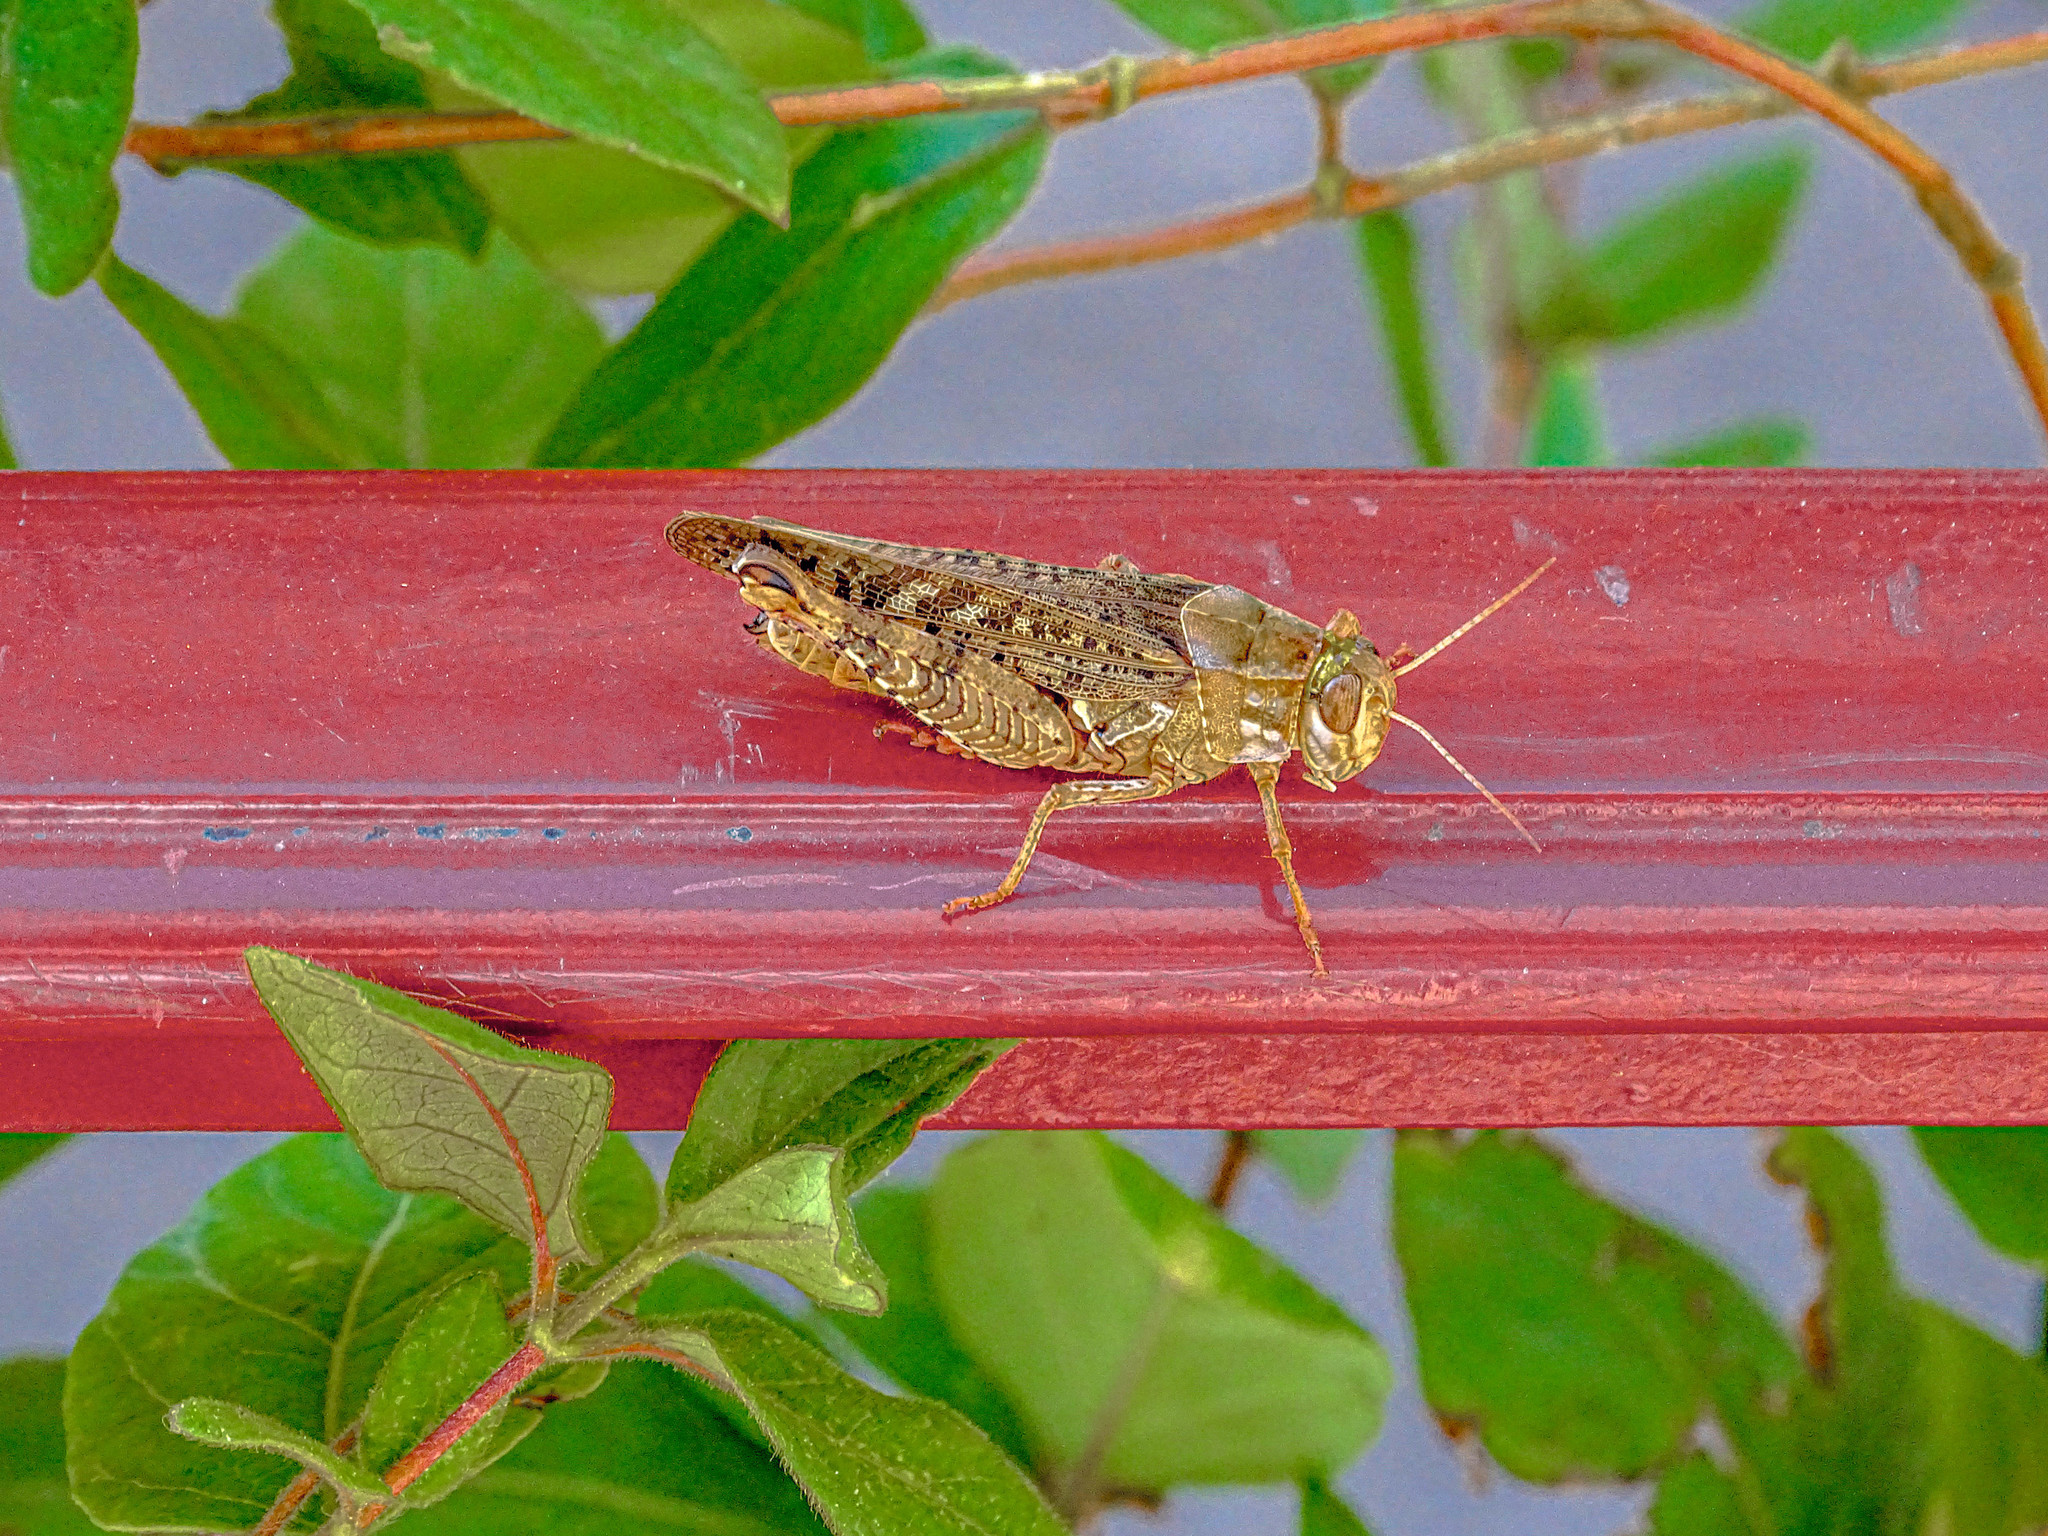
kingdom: Animalia
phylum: Arthropoda
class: Insecta
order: Orthoptera
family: Acrididae
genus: Calliptamus
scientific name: Calliptamus
